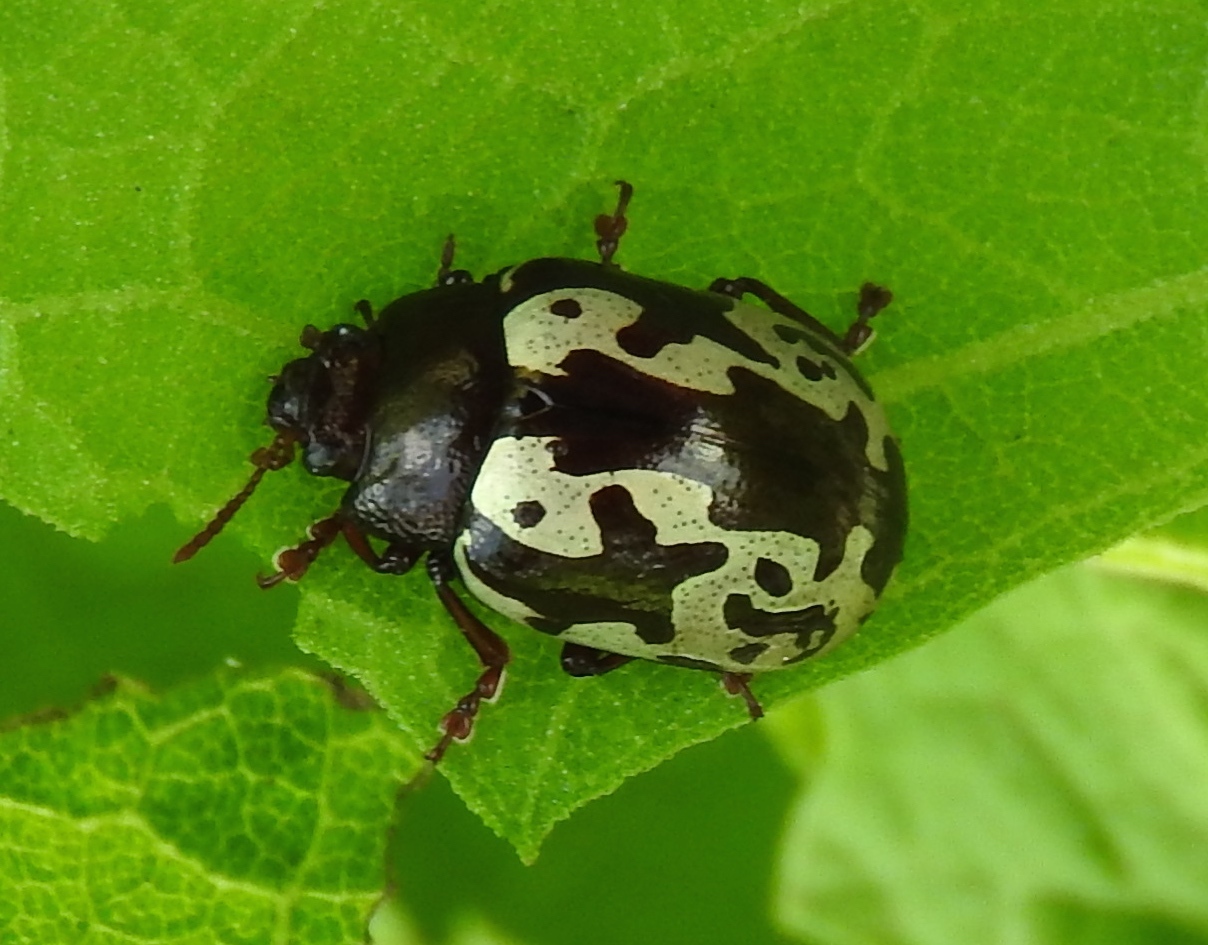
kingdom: Animalia
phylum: Arthropoda
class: Insecta
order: Coleoptera
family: Chrysomelidae
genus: Calligrapha
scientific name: Calligrapha intermedia
